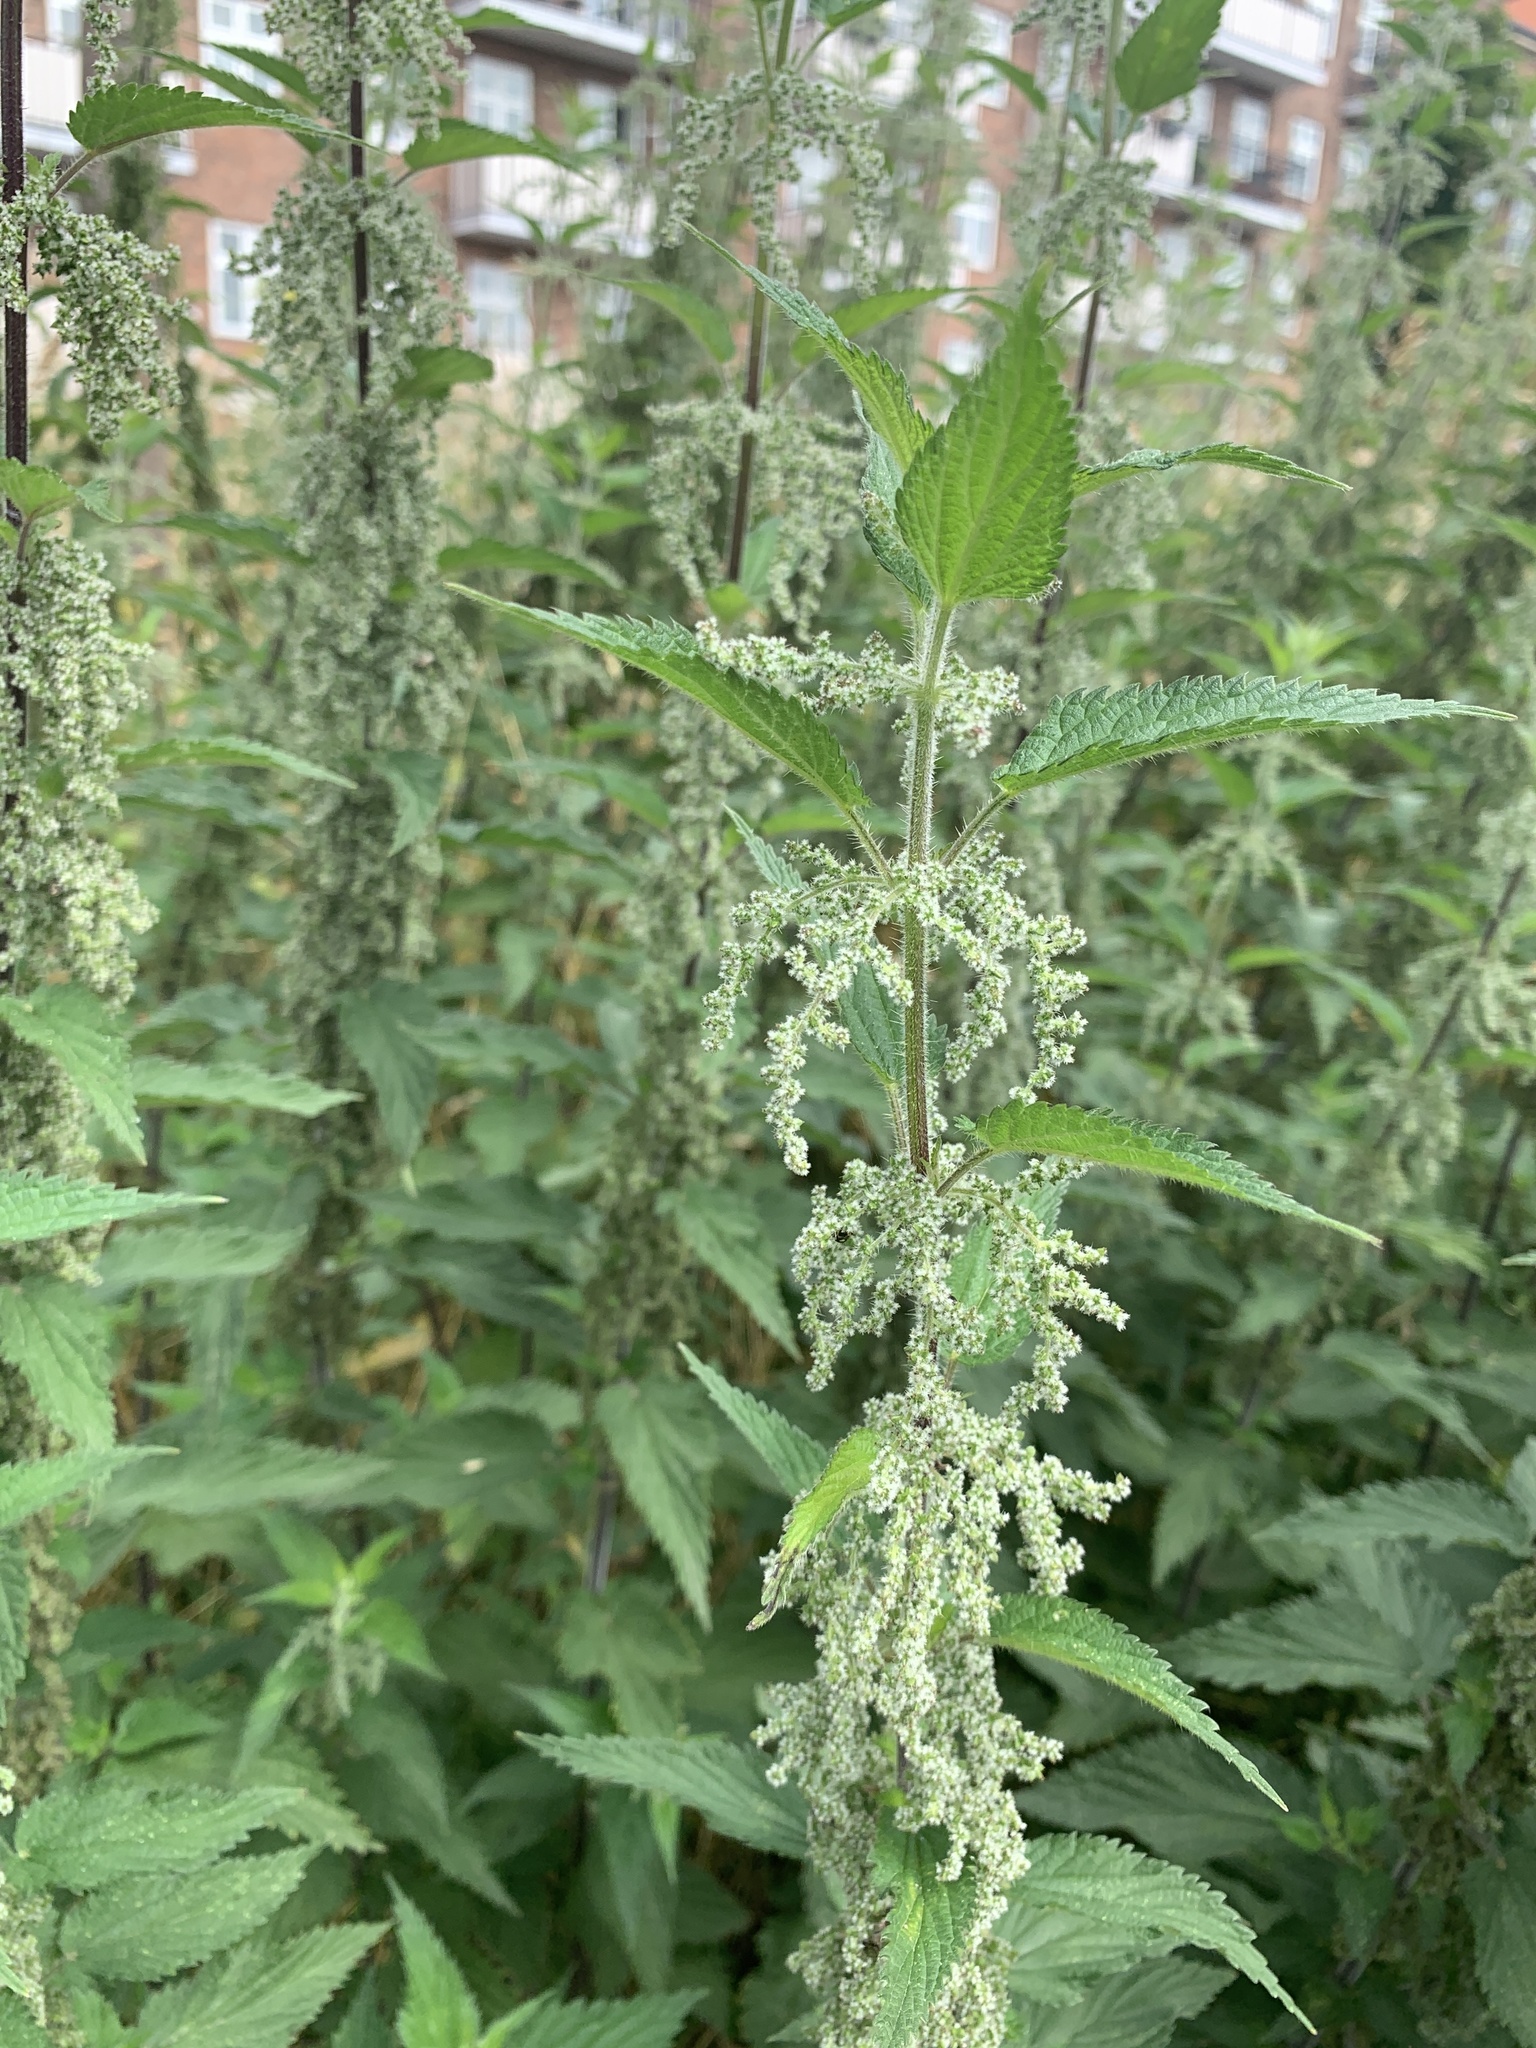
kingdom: Plantae
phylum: Tracheophyta
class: Magnoliopsida
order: Rosales
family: Urticaceae
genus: Urtica
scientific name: Urtica dioica
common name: Common nettle
